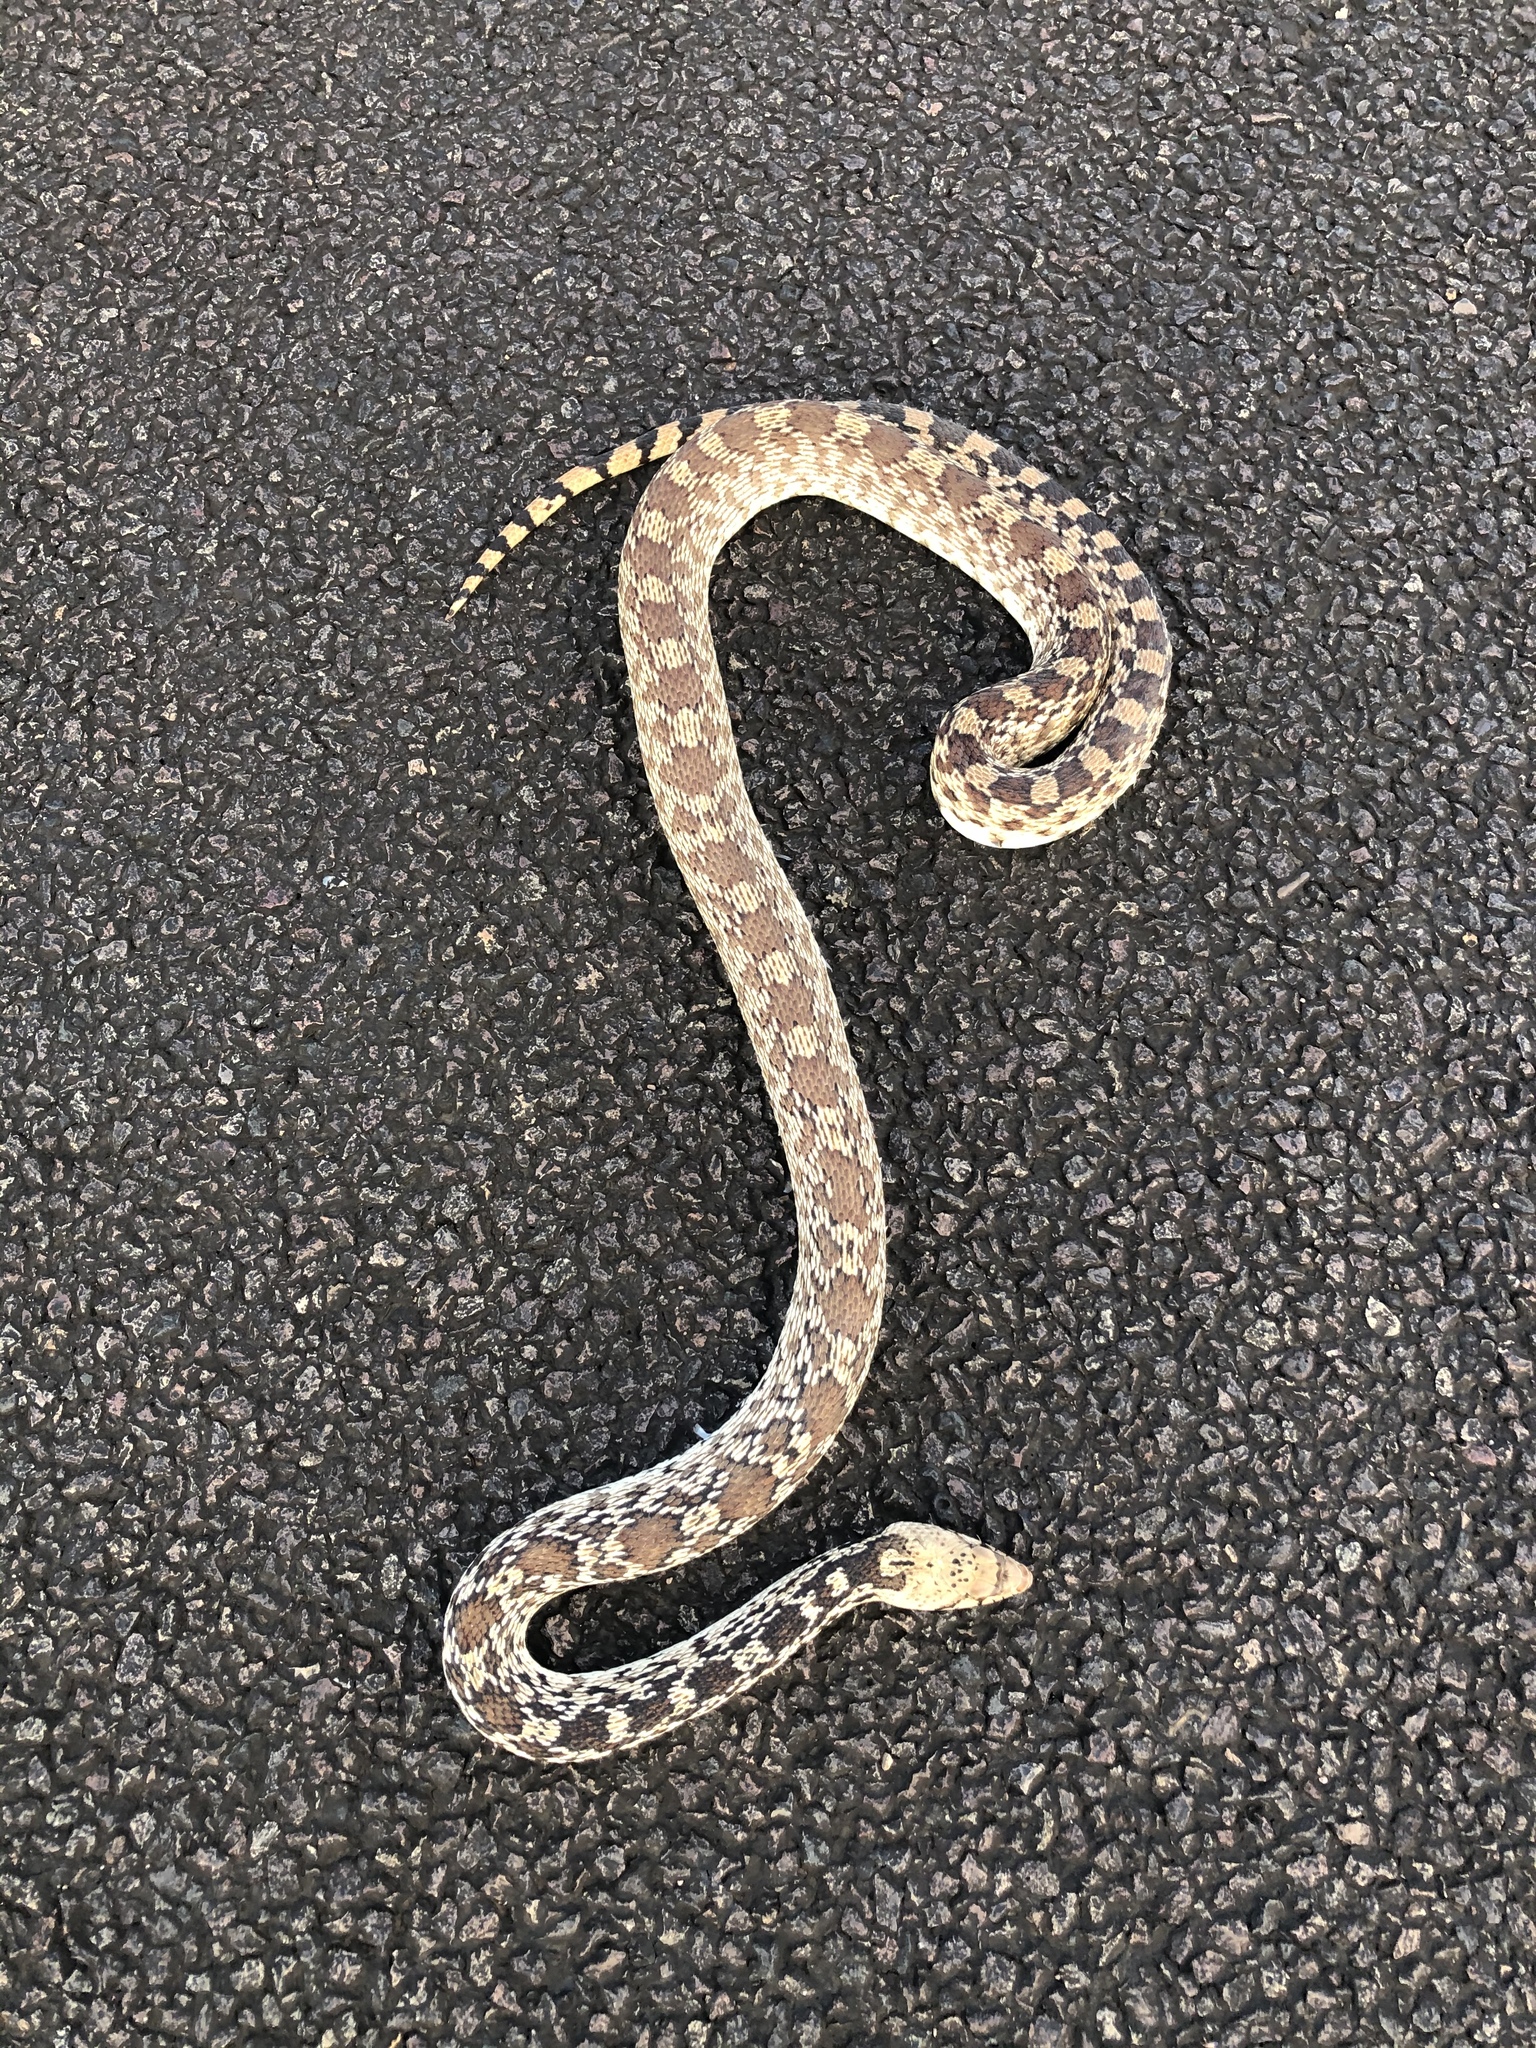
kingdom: Animalia
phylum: Chordata
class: Squamata
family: Colubridae
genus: Pituophis
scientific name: Pituophis catenifer
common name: Gopher snake
